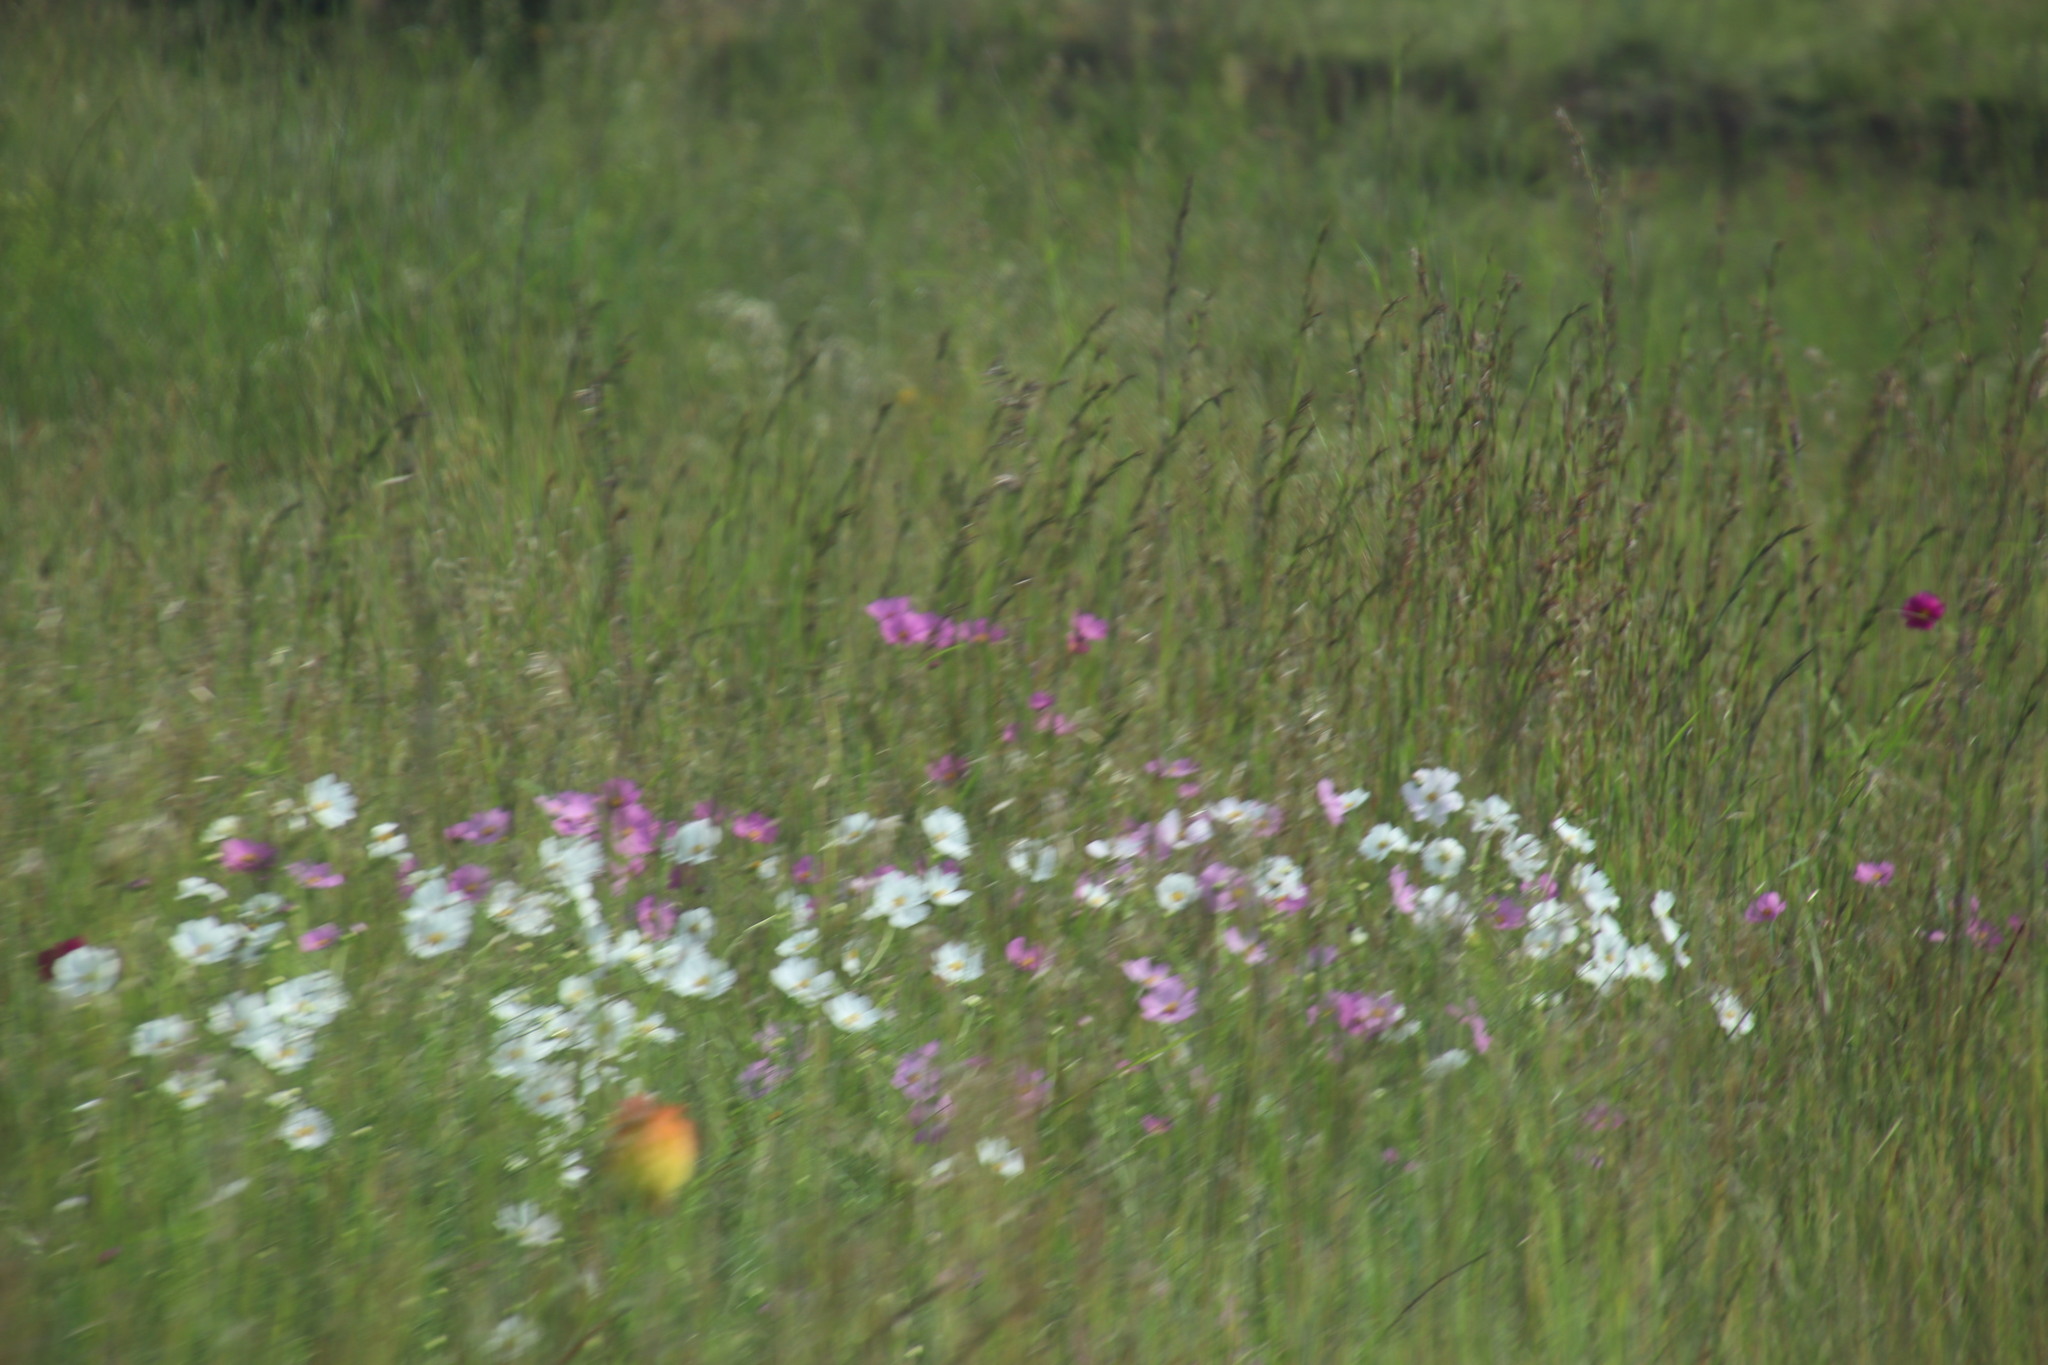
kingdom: Plantae
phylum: Tracheophyta
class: Magnoliopsida
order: Asterales
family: Asteraceae
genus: Cosmos
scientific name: Cosmos bipinnatus
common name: Garden cosmos
